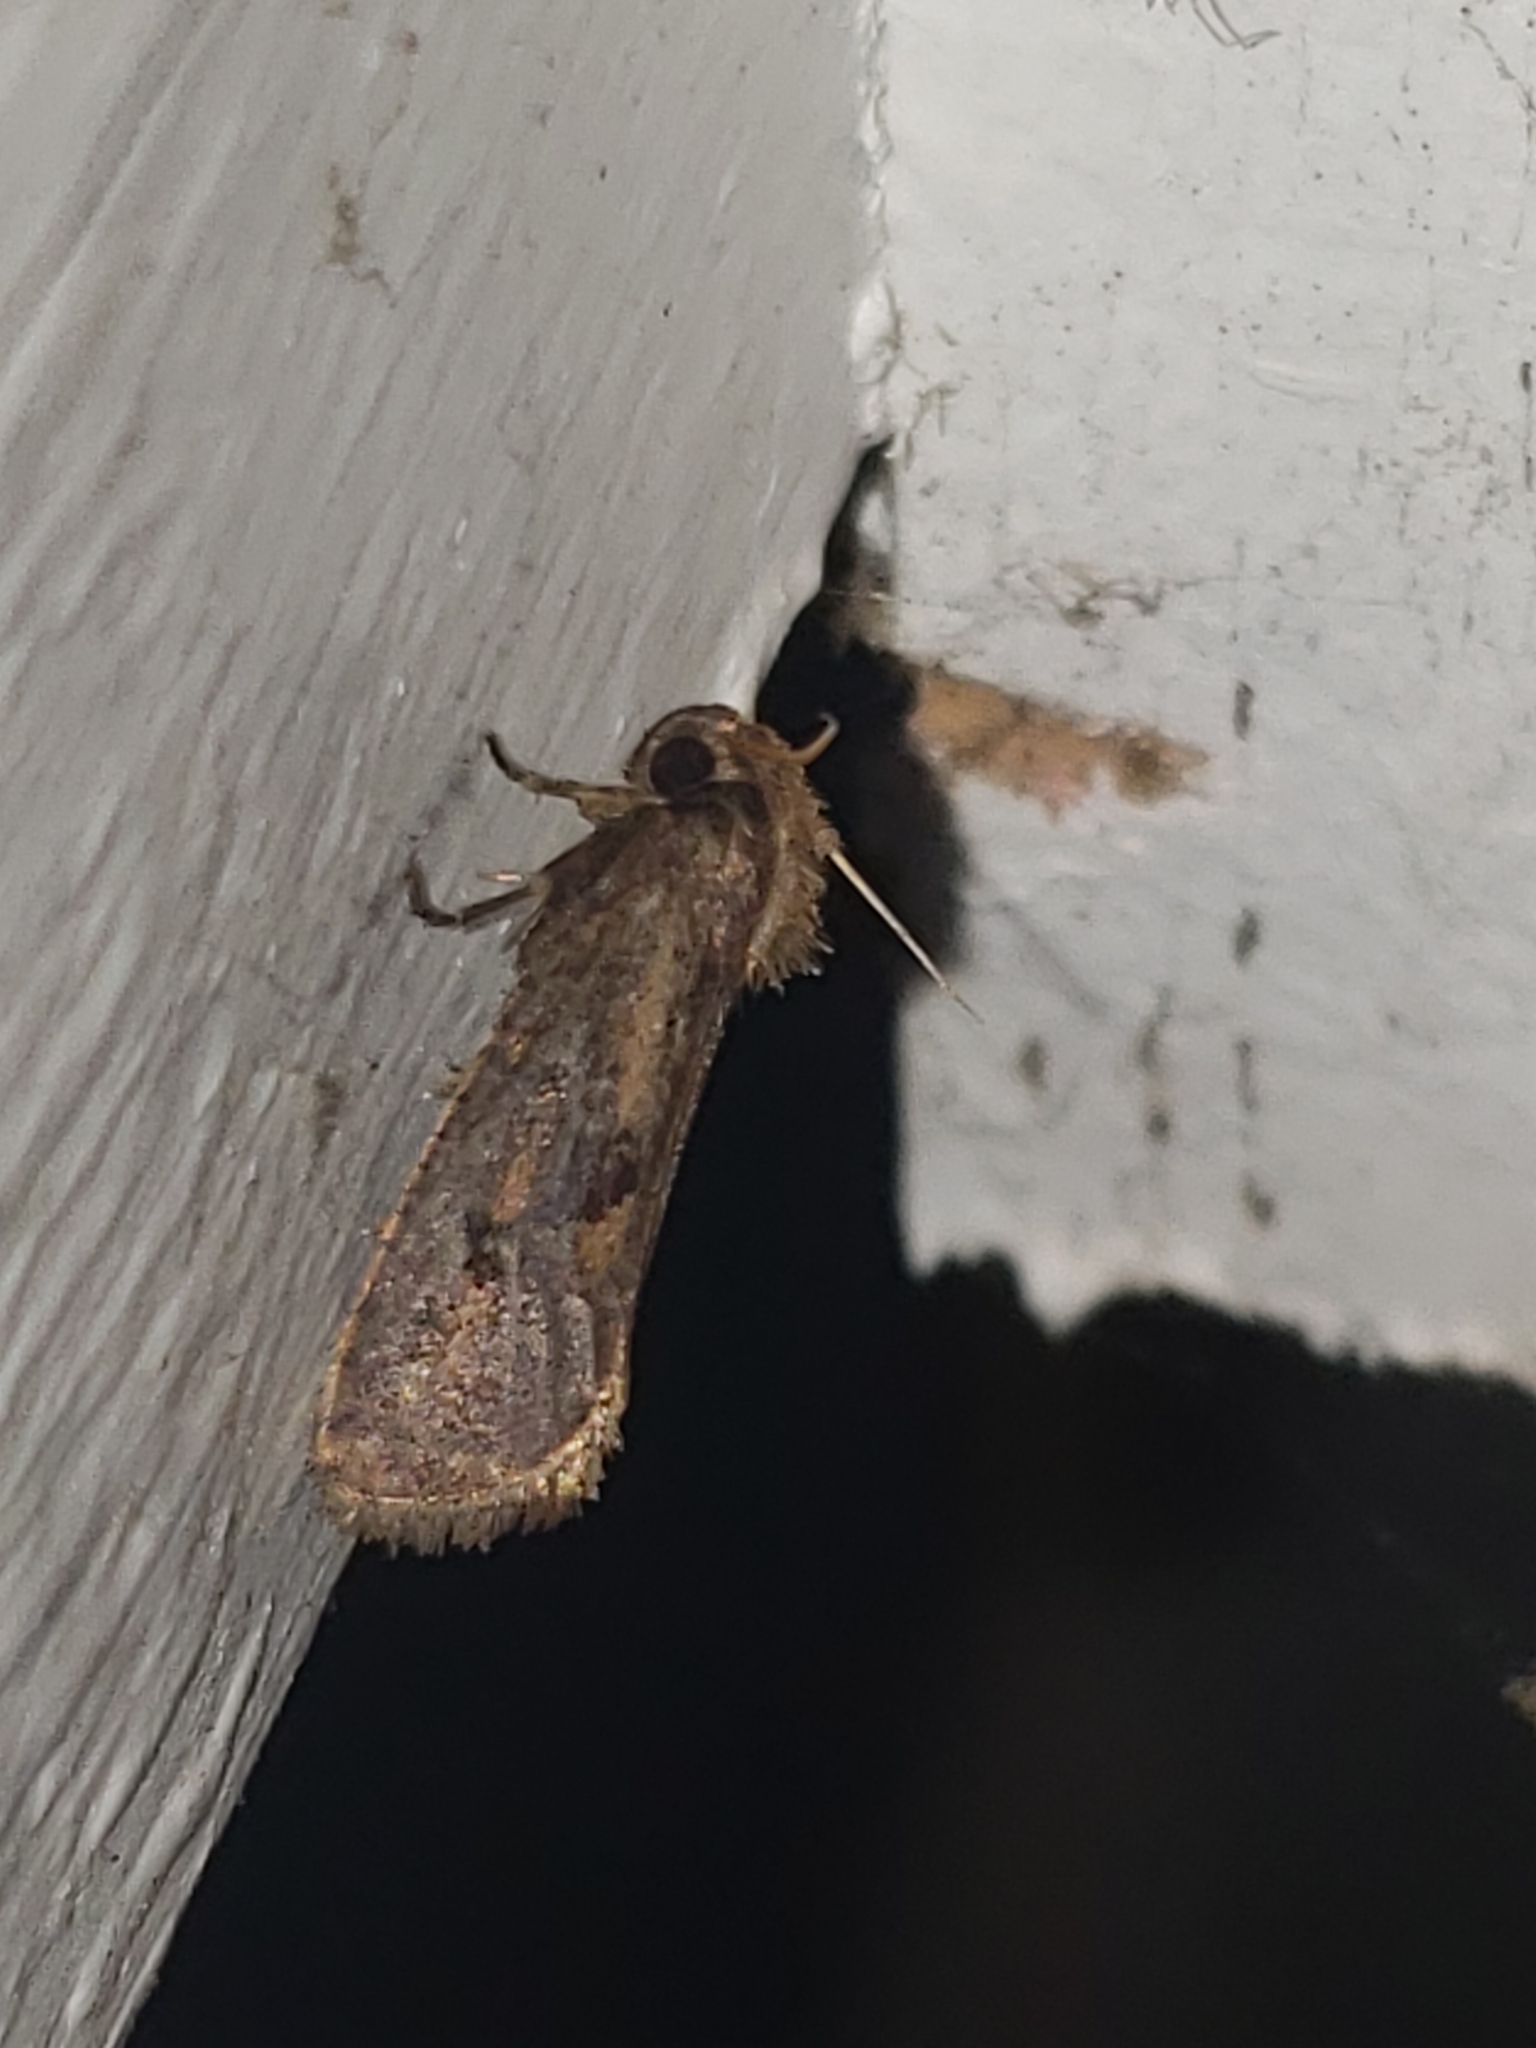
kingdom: Animalia
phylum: Arthropoda
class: Insecta
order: Lepidoptera
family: Tineidae
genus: Acrolophus
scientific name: Acrolophus popeanella
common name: Clemens' grass tubeworm moth
